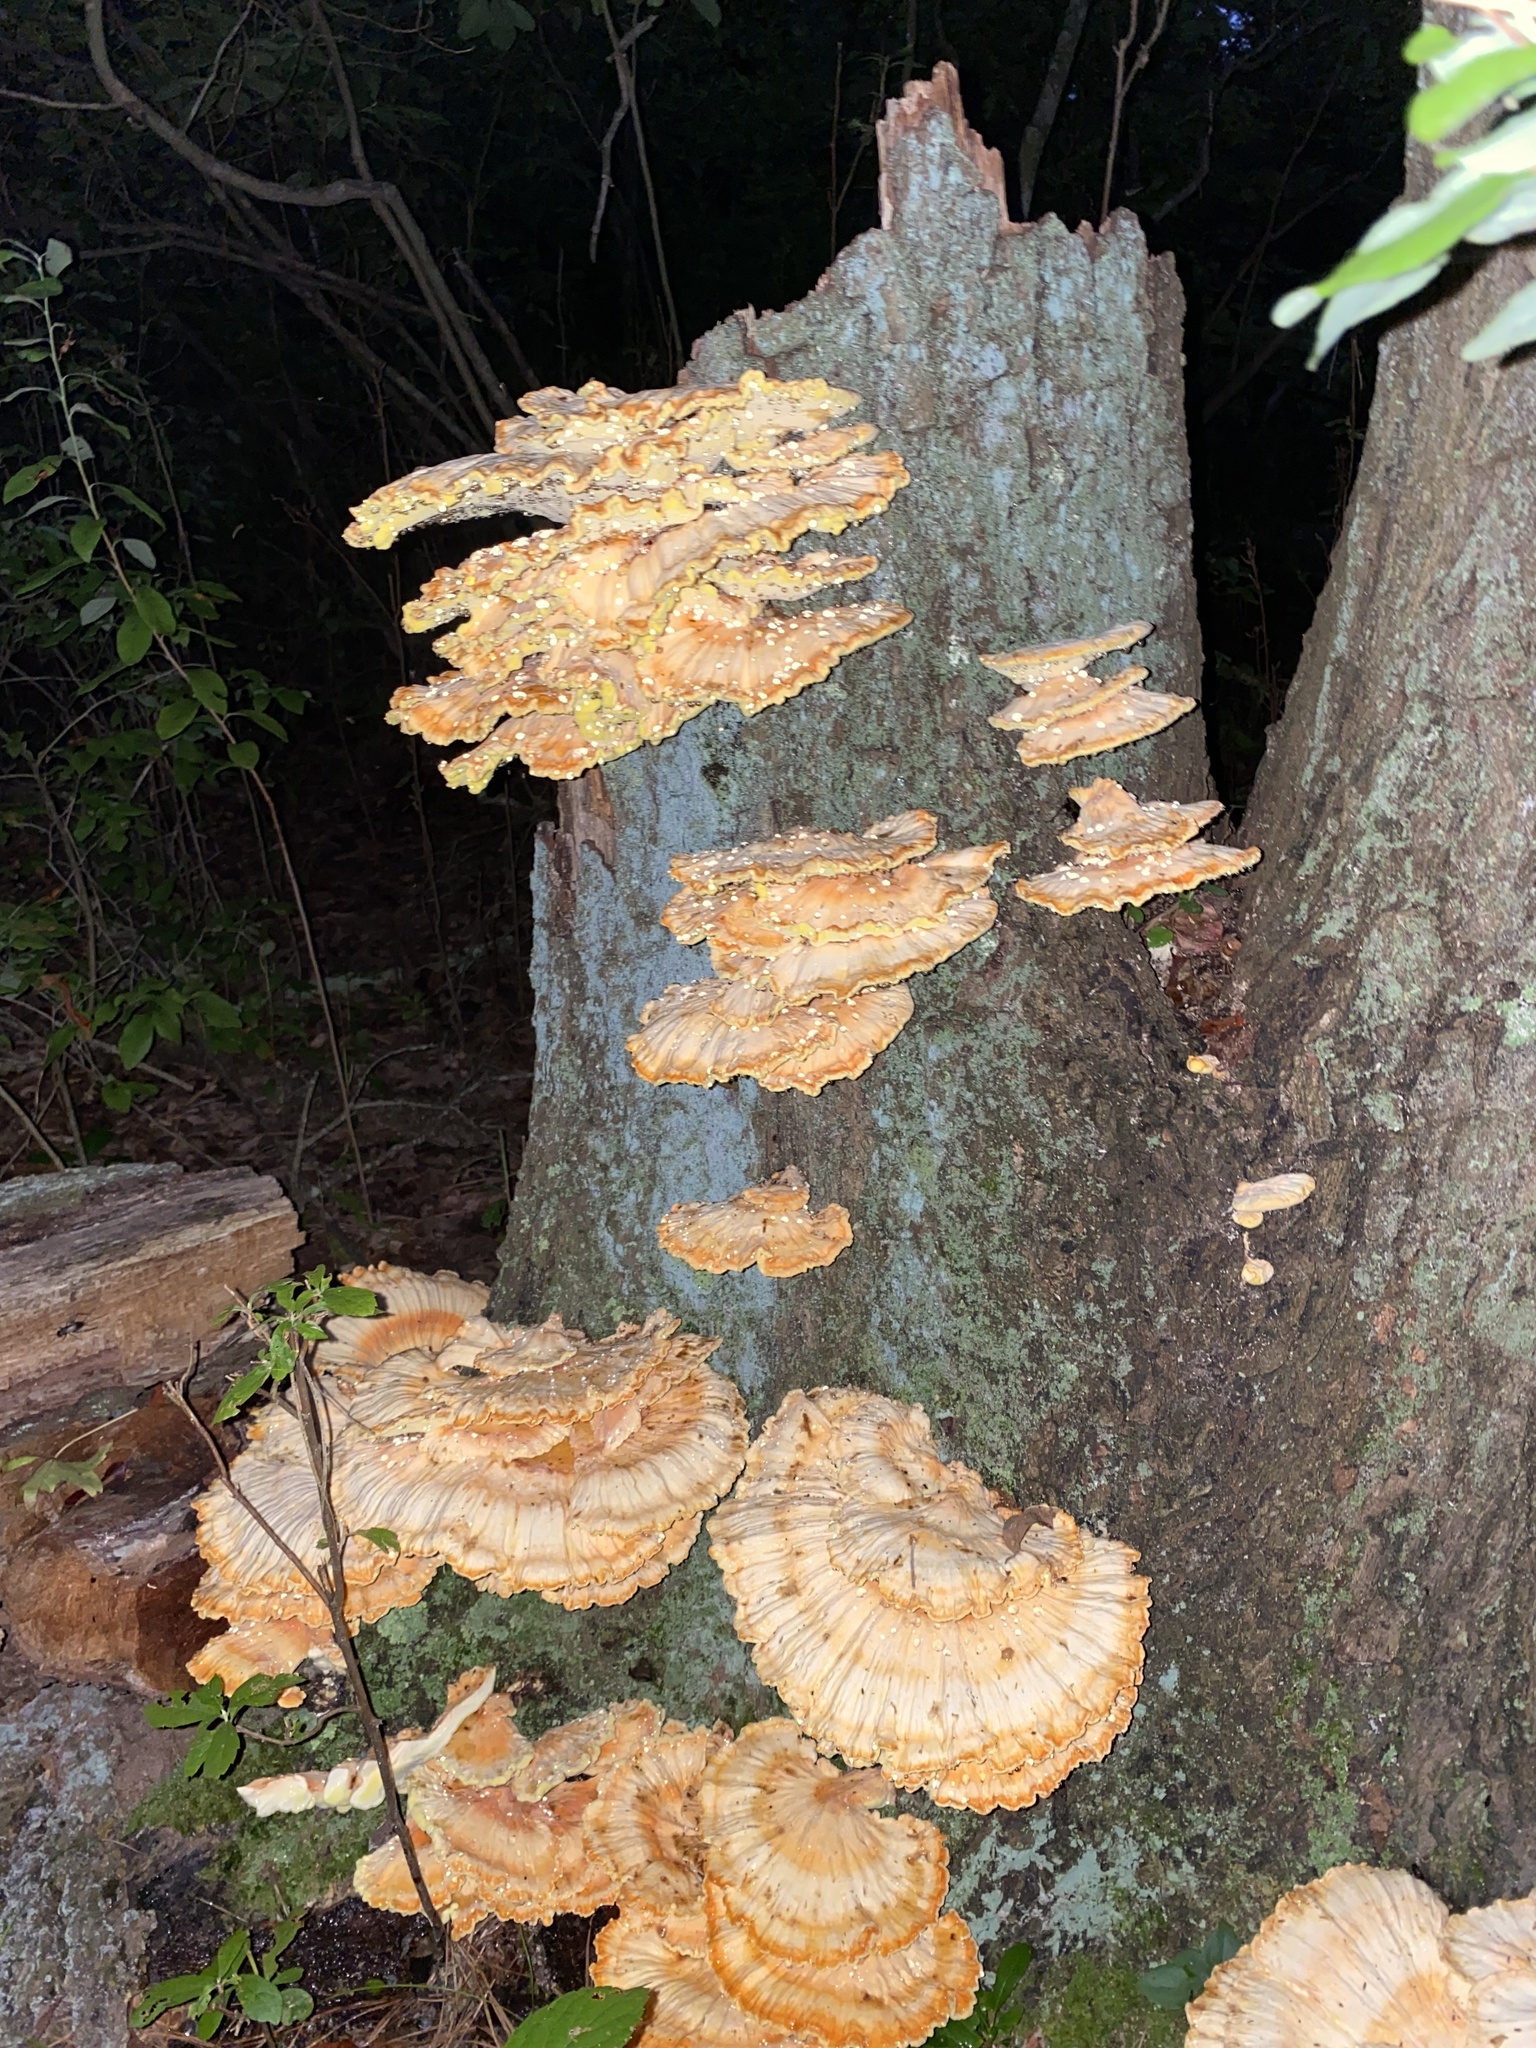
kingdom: Fungi
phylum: Basidiomycota
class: Agaricomycetes
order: Polyporales
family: Laetiporaceae
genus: Laetiporus
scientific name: Laetiporus sulphureus
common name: Chicken of the woods
